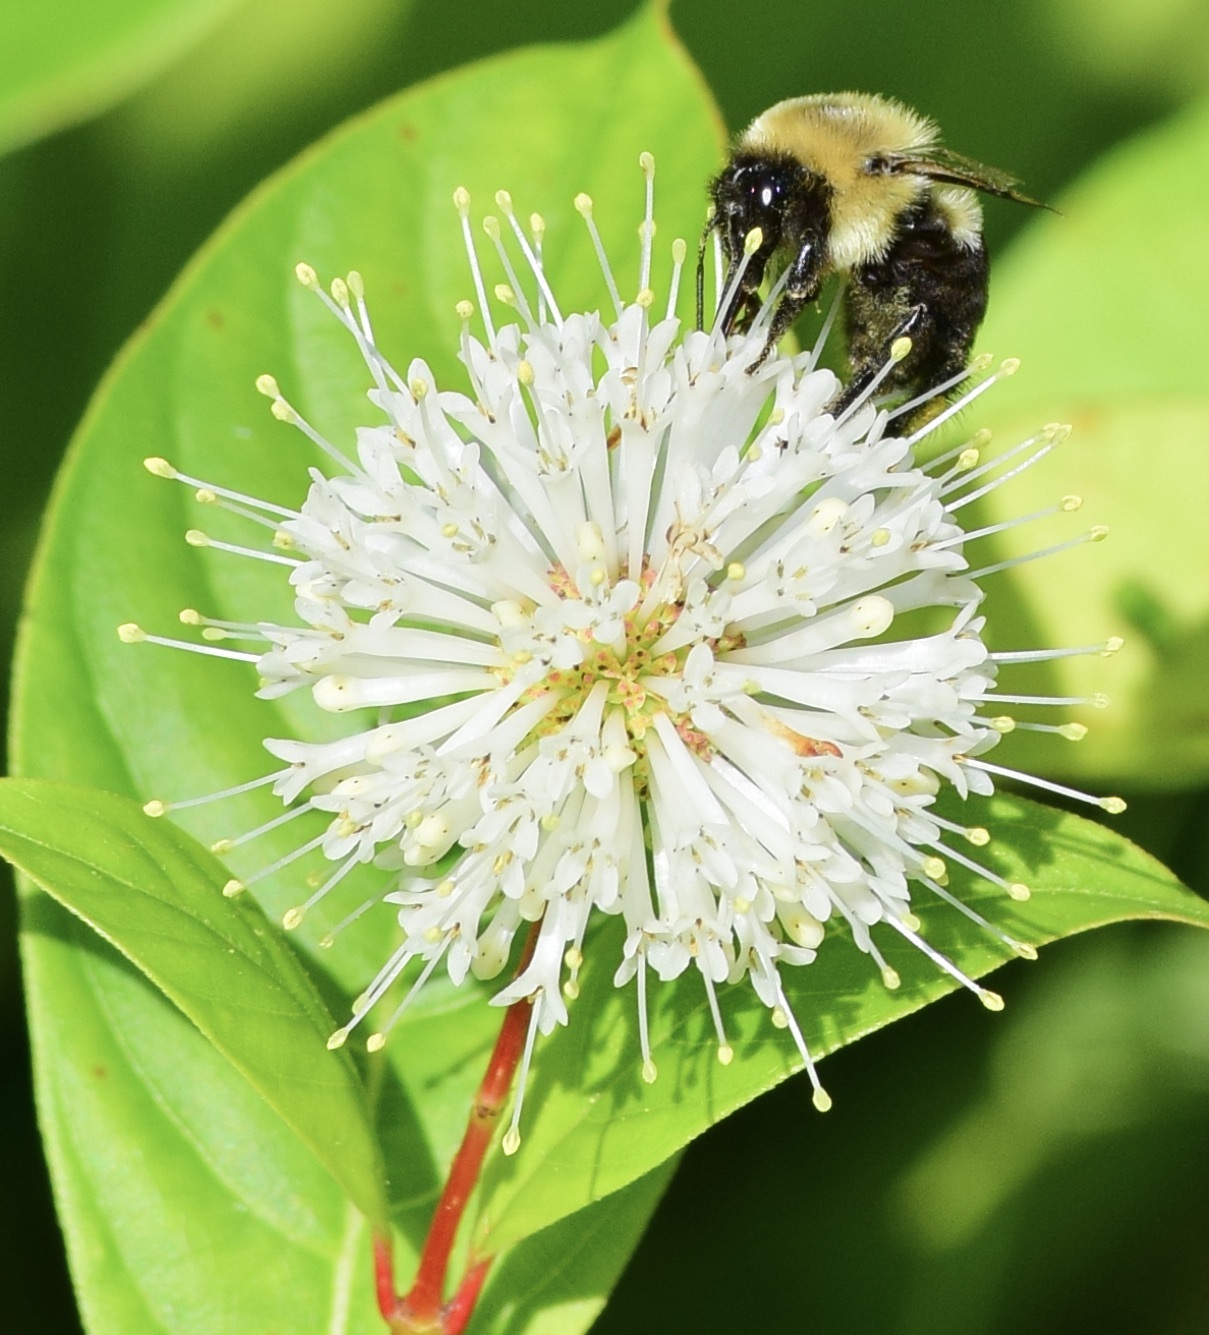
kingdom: Animalia
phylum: Arthropoda
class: Insecta
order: Hymenoptera
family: Apidae
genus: Bombus
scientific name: Bombus impatiens
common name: Common eastern bumble bee
